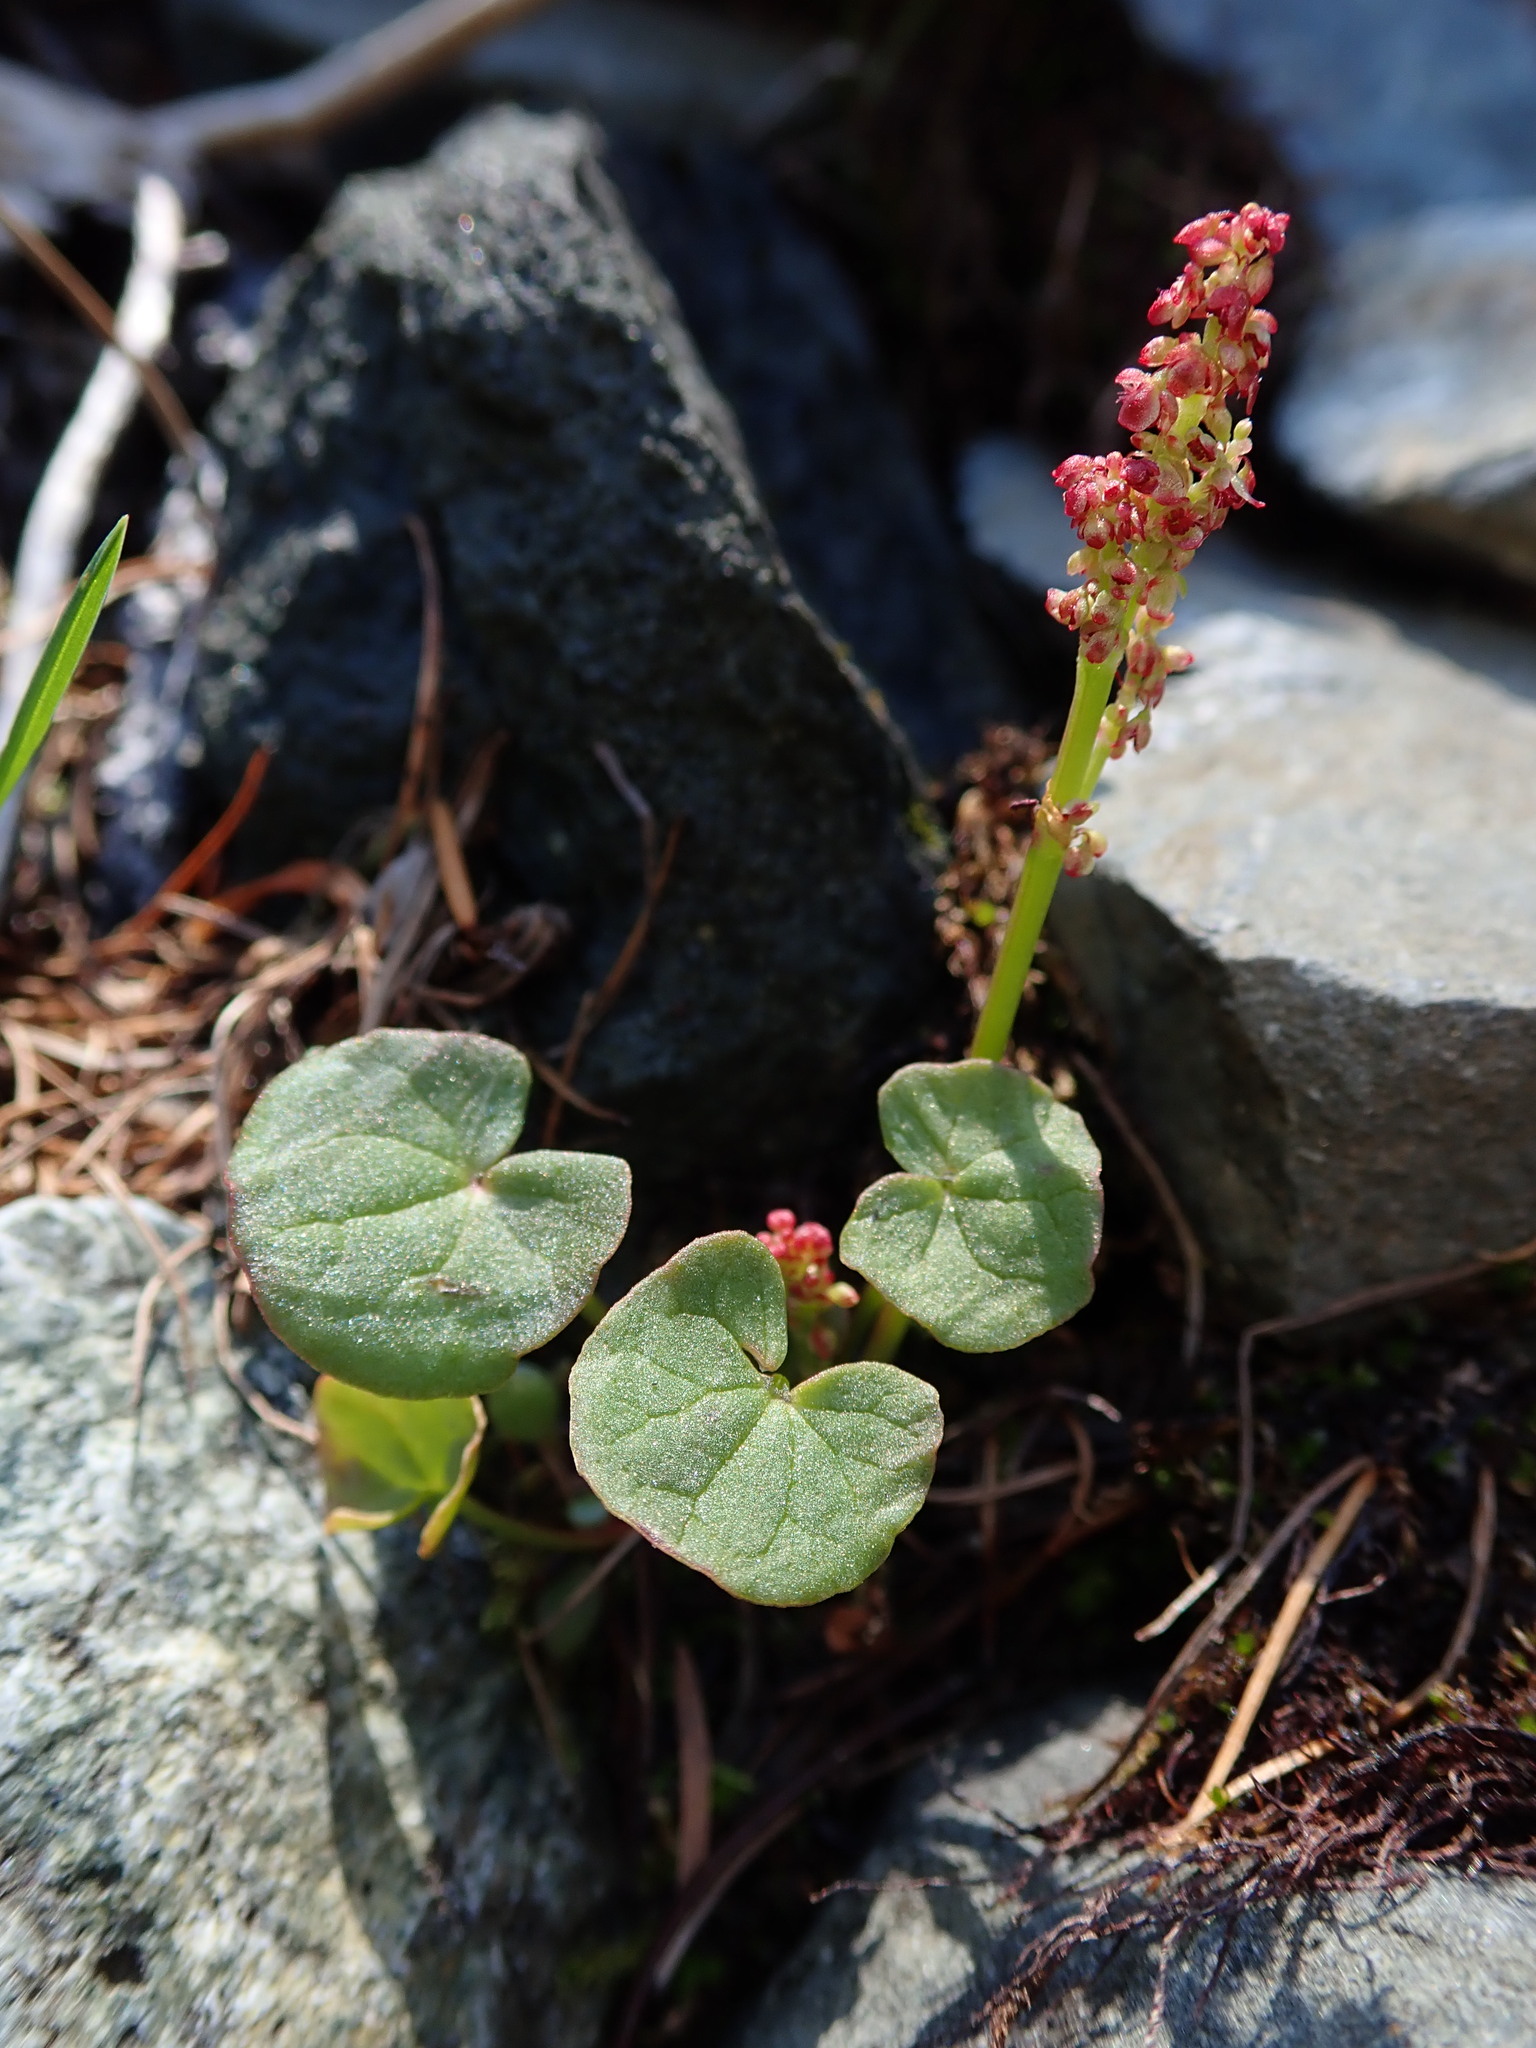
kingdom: Plantae
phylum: Tracheophyta
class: Magnoliopsida
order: Caryophyllales
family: Polygonaceae
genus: Oxyria
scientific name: Oxyria digyna
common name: Alpine mountain-sorrel
